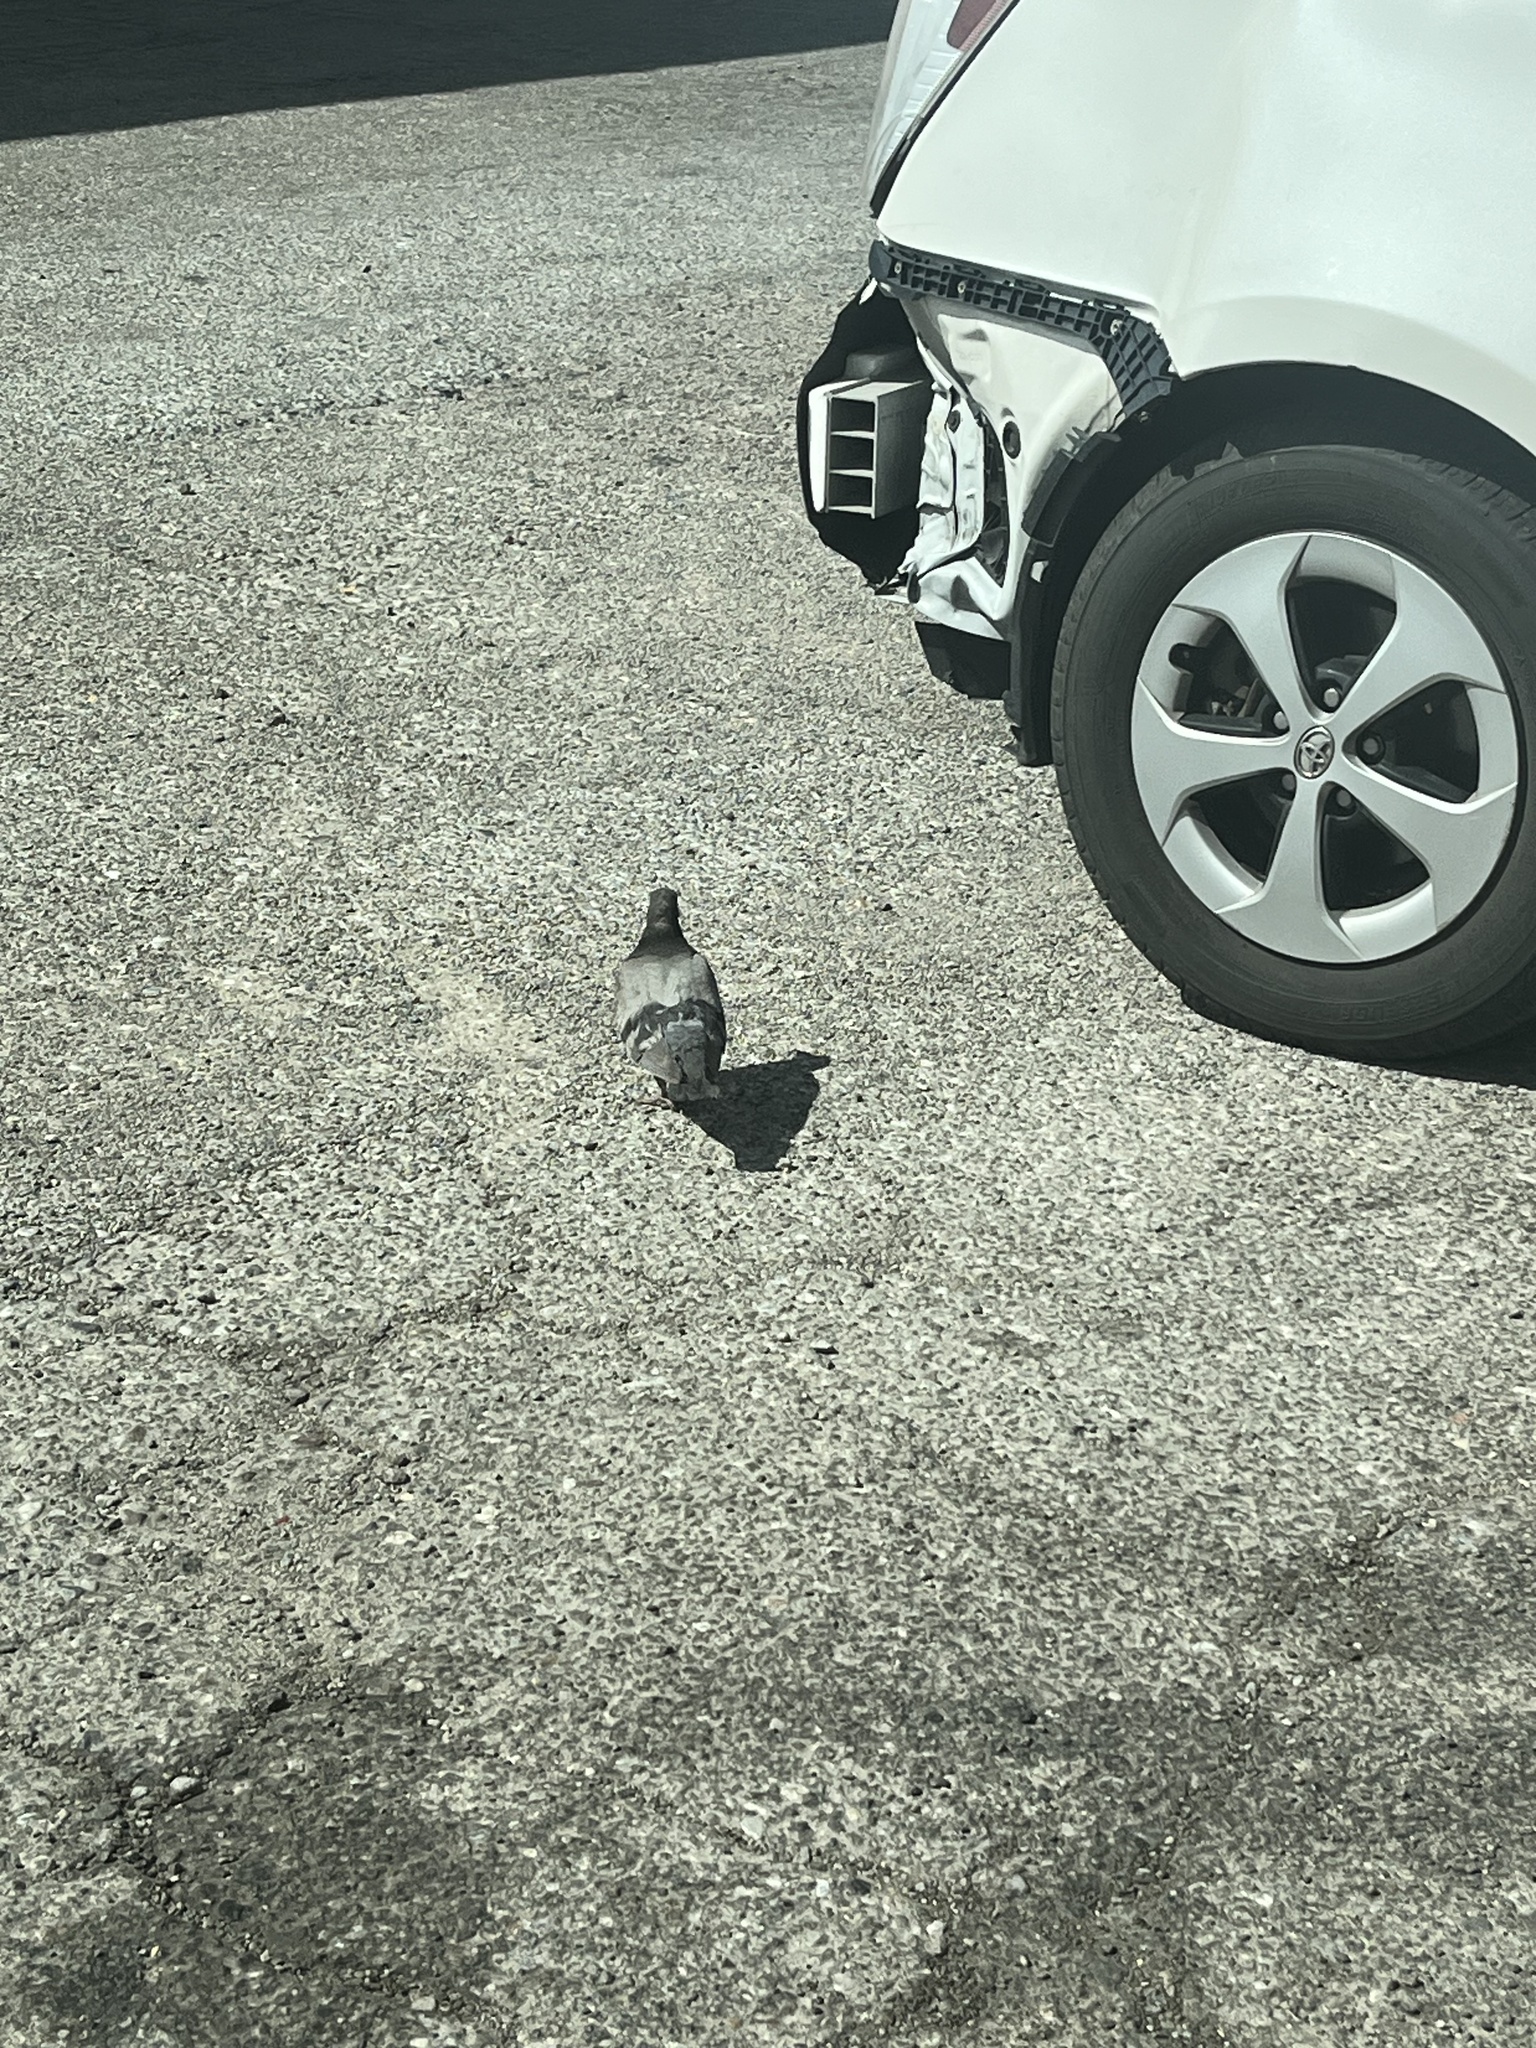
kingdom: Animalia
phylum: Chordata
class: Aves
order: Columbiformes
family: Columbidae
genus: Columba
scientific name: Columba livia
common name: Rock pigeon
